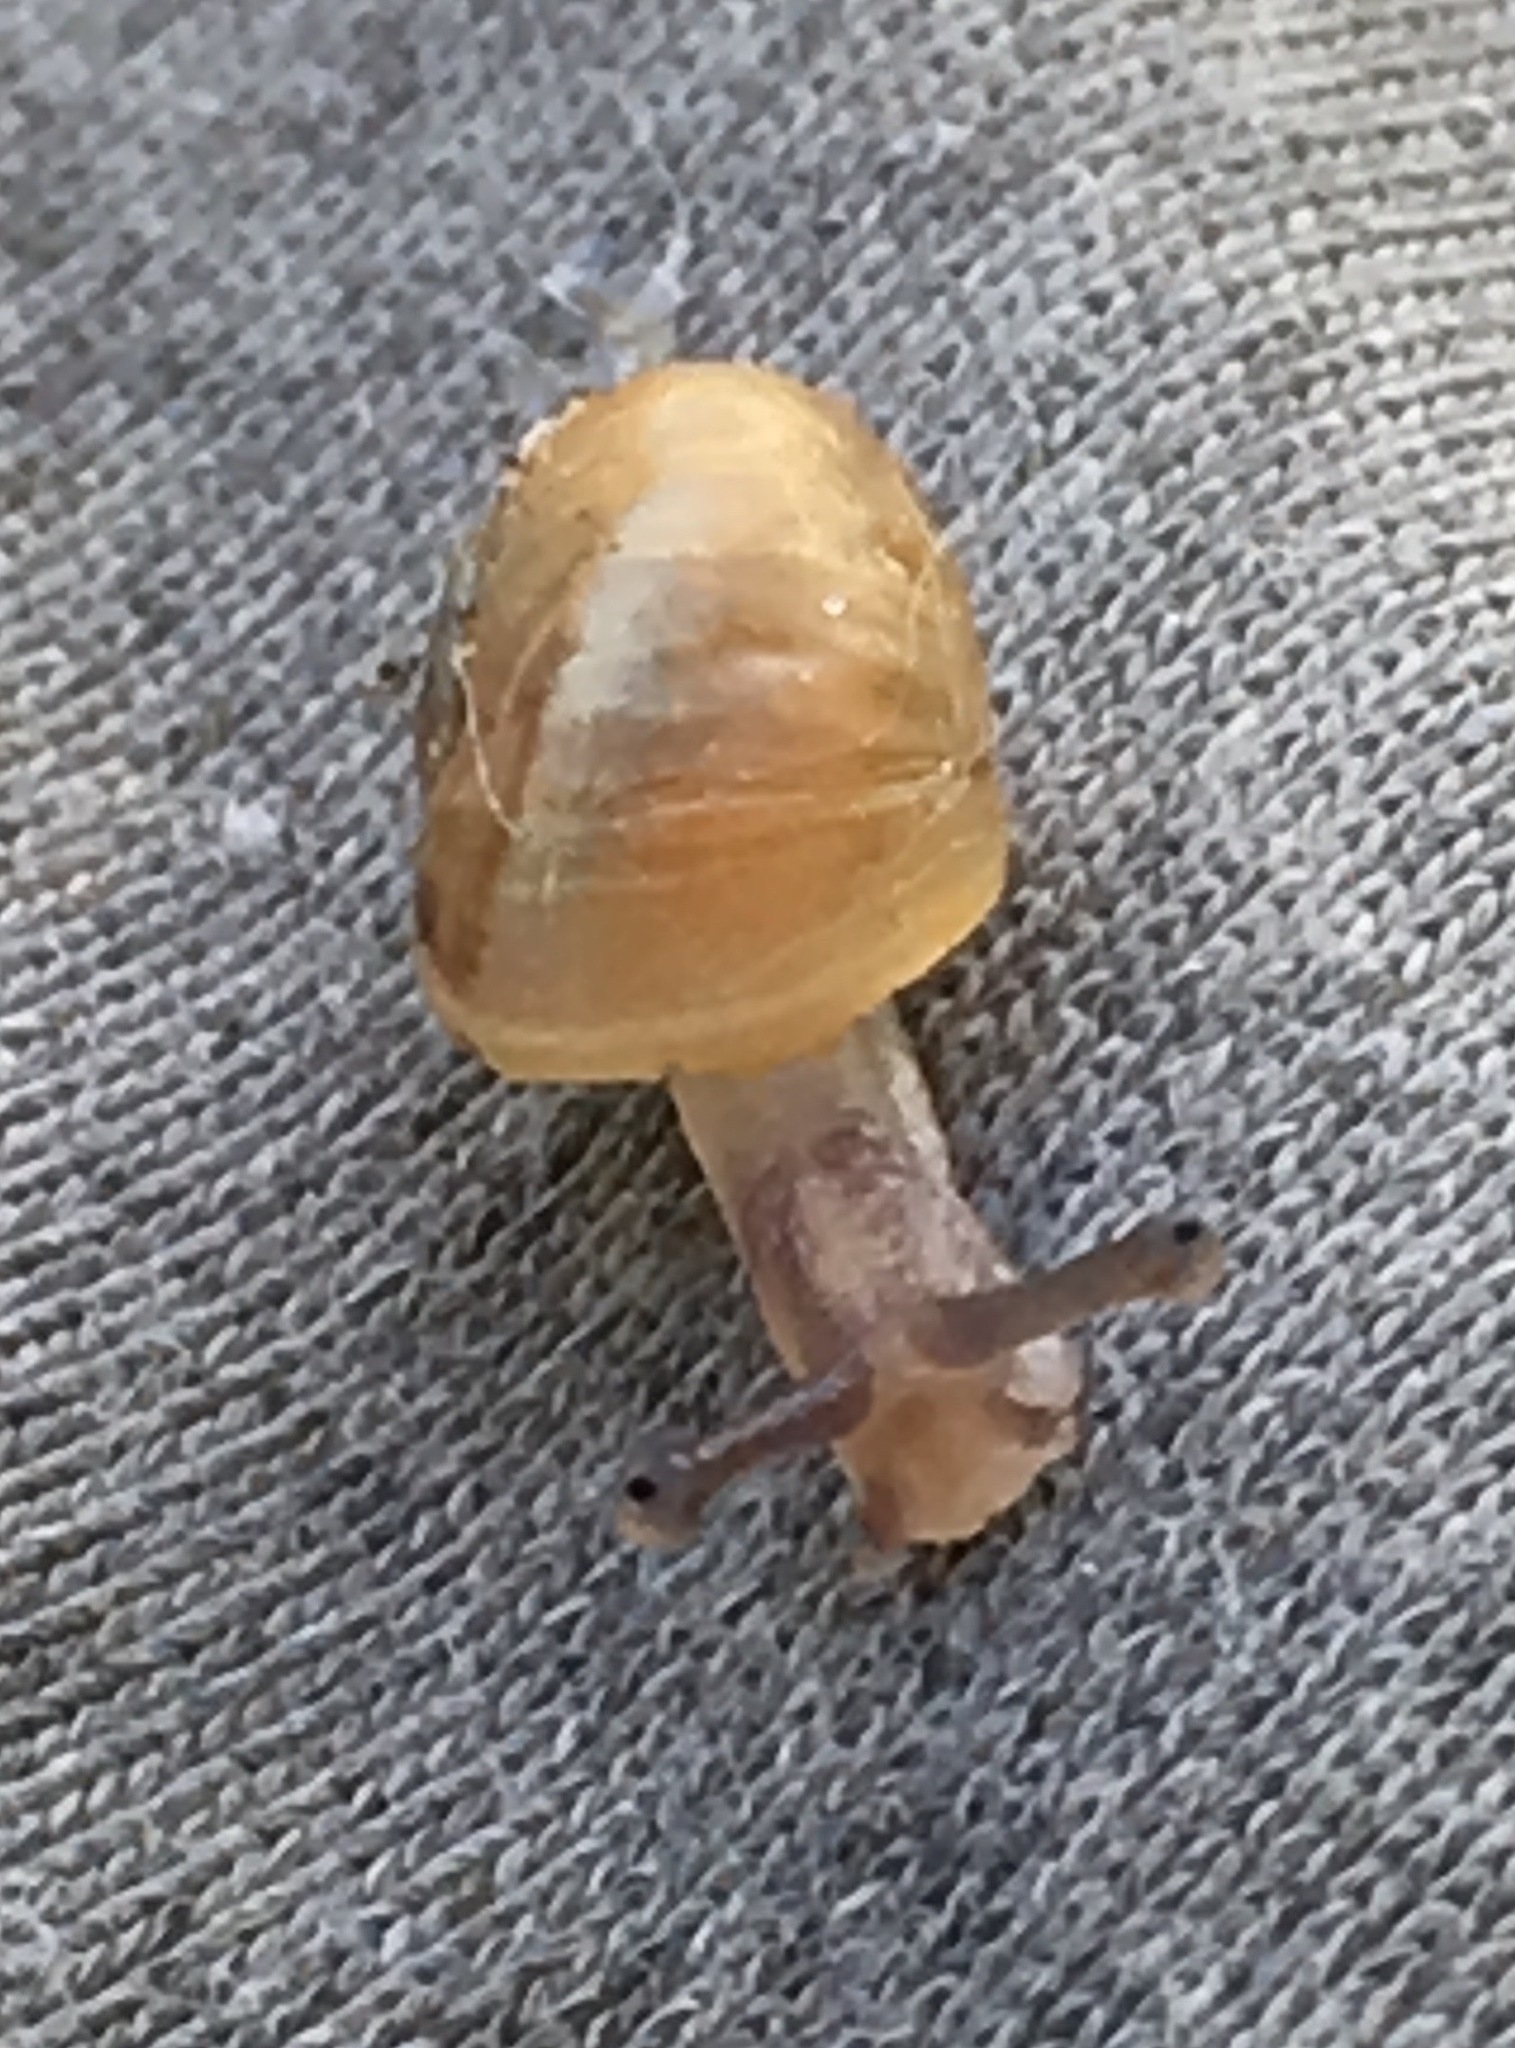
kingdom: Animalia
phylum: Mollusca
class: Gastropoda
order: Stylommatophora
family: Helicidae
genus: Cornu
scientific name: Cornu aspersum
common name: Brown garden snail
